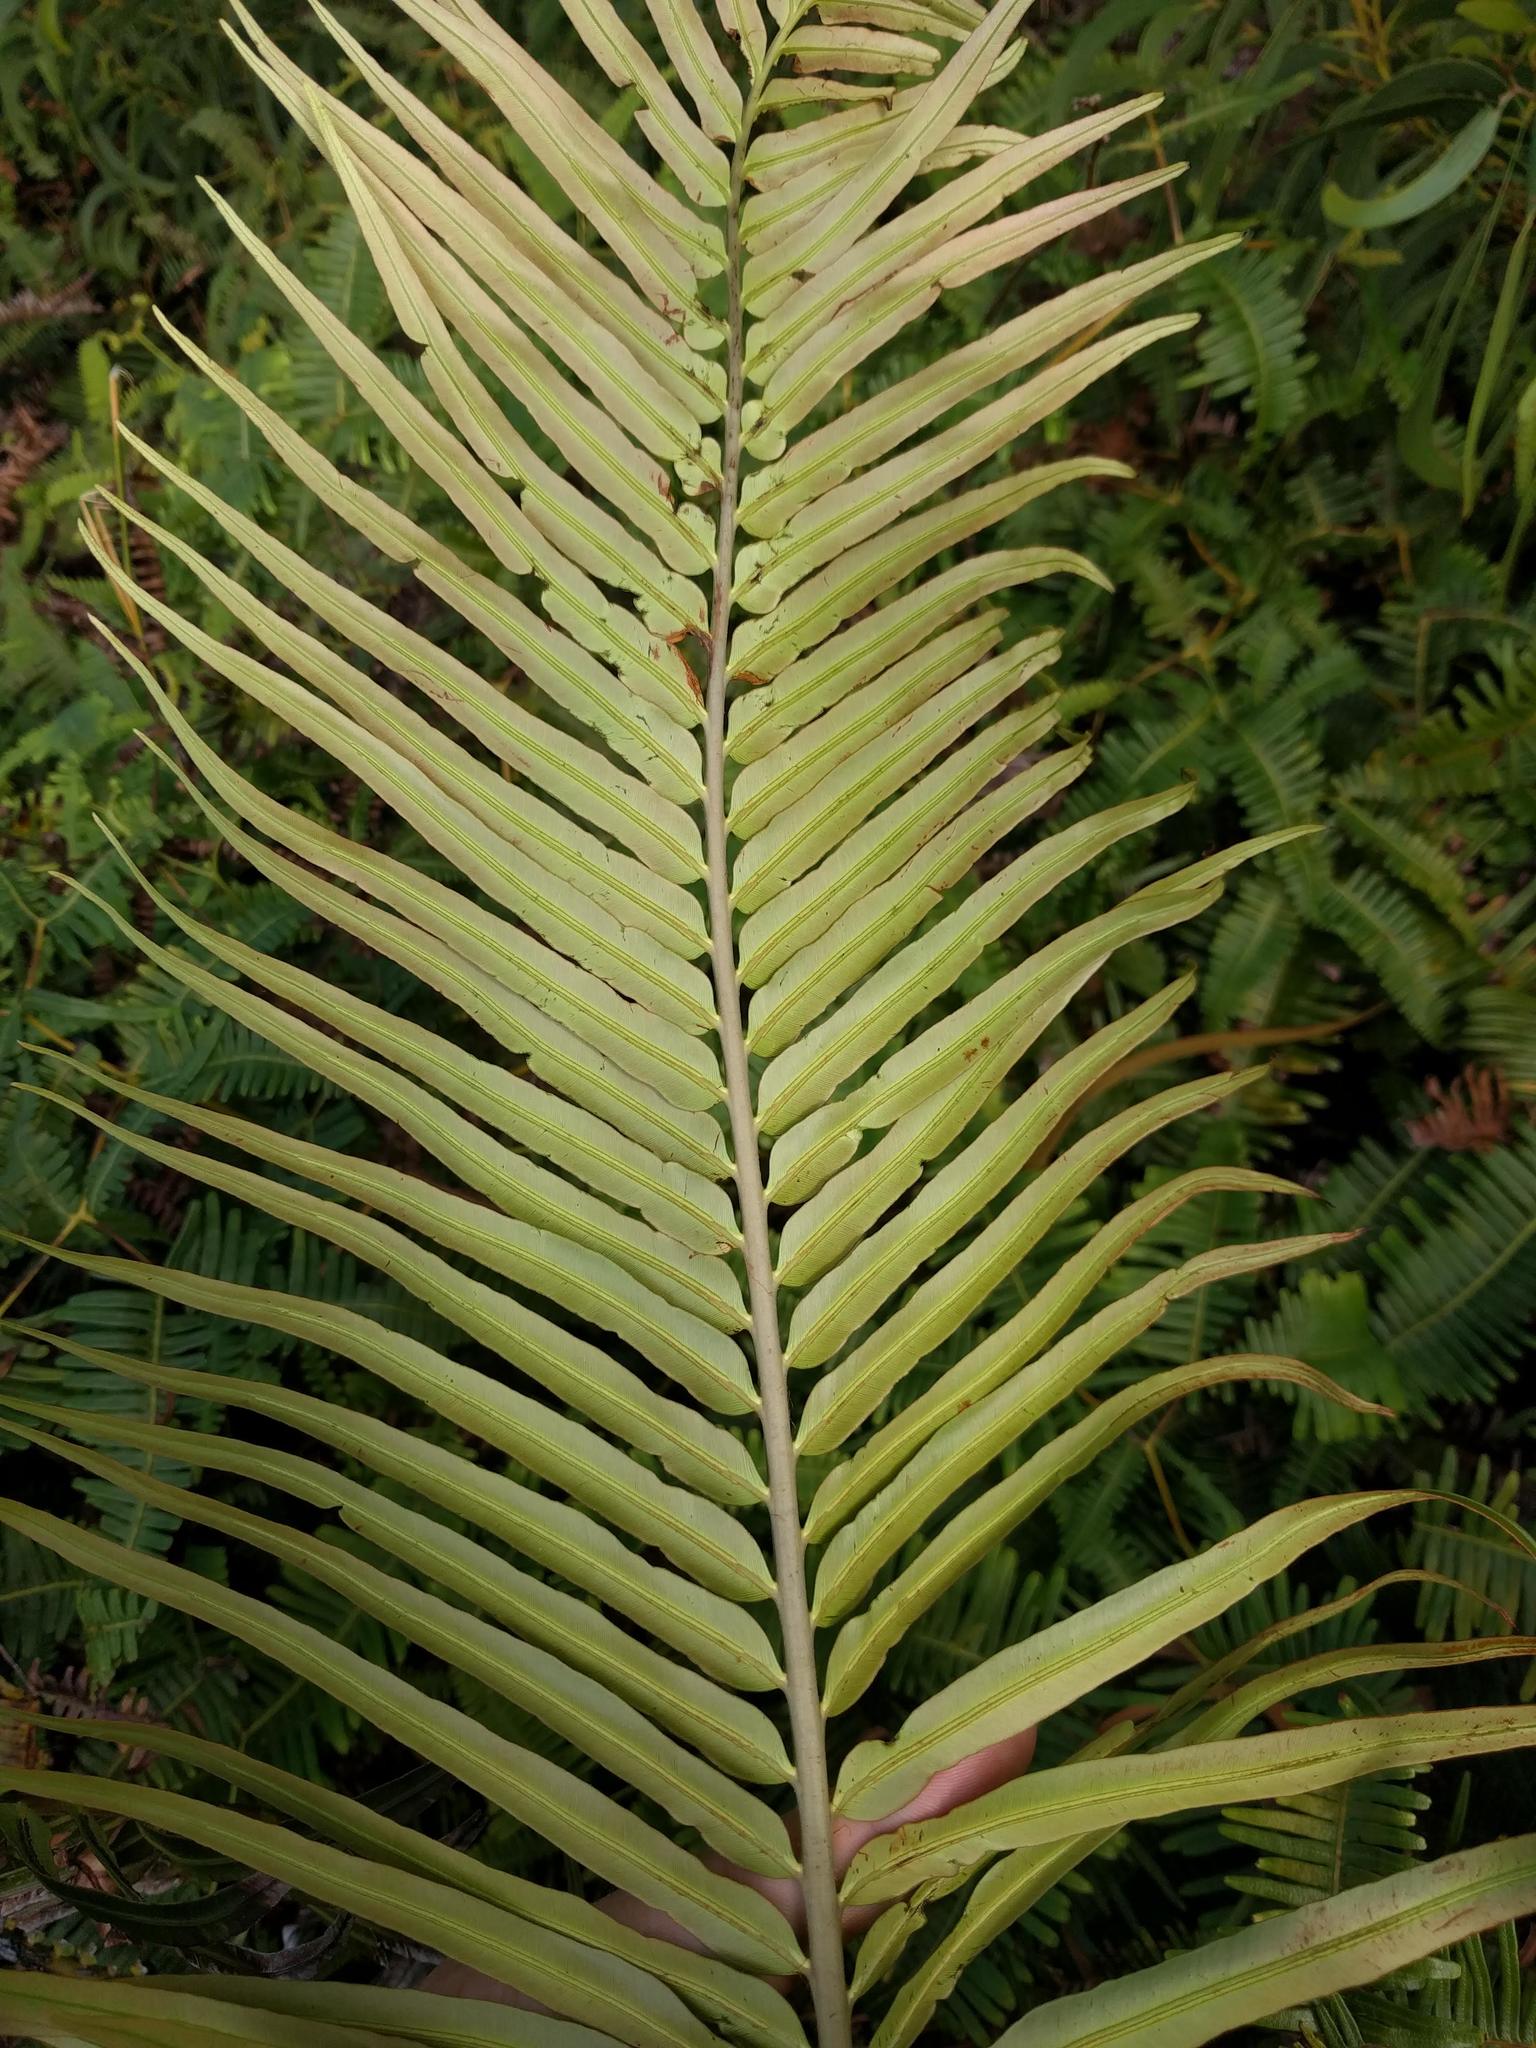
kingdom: Plantae
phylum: Tracheophyta
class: Polypodiopsida
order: Polypodiales
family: Blechnaceae
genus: Blechnopsis
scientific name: Blechnopsis orientalis
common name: Oriental blechnum
